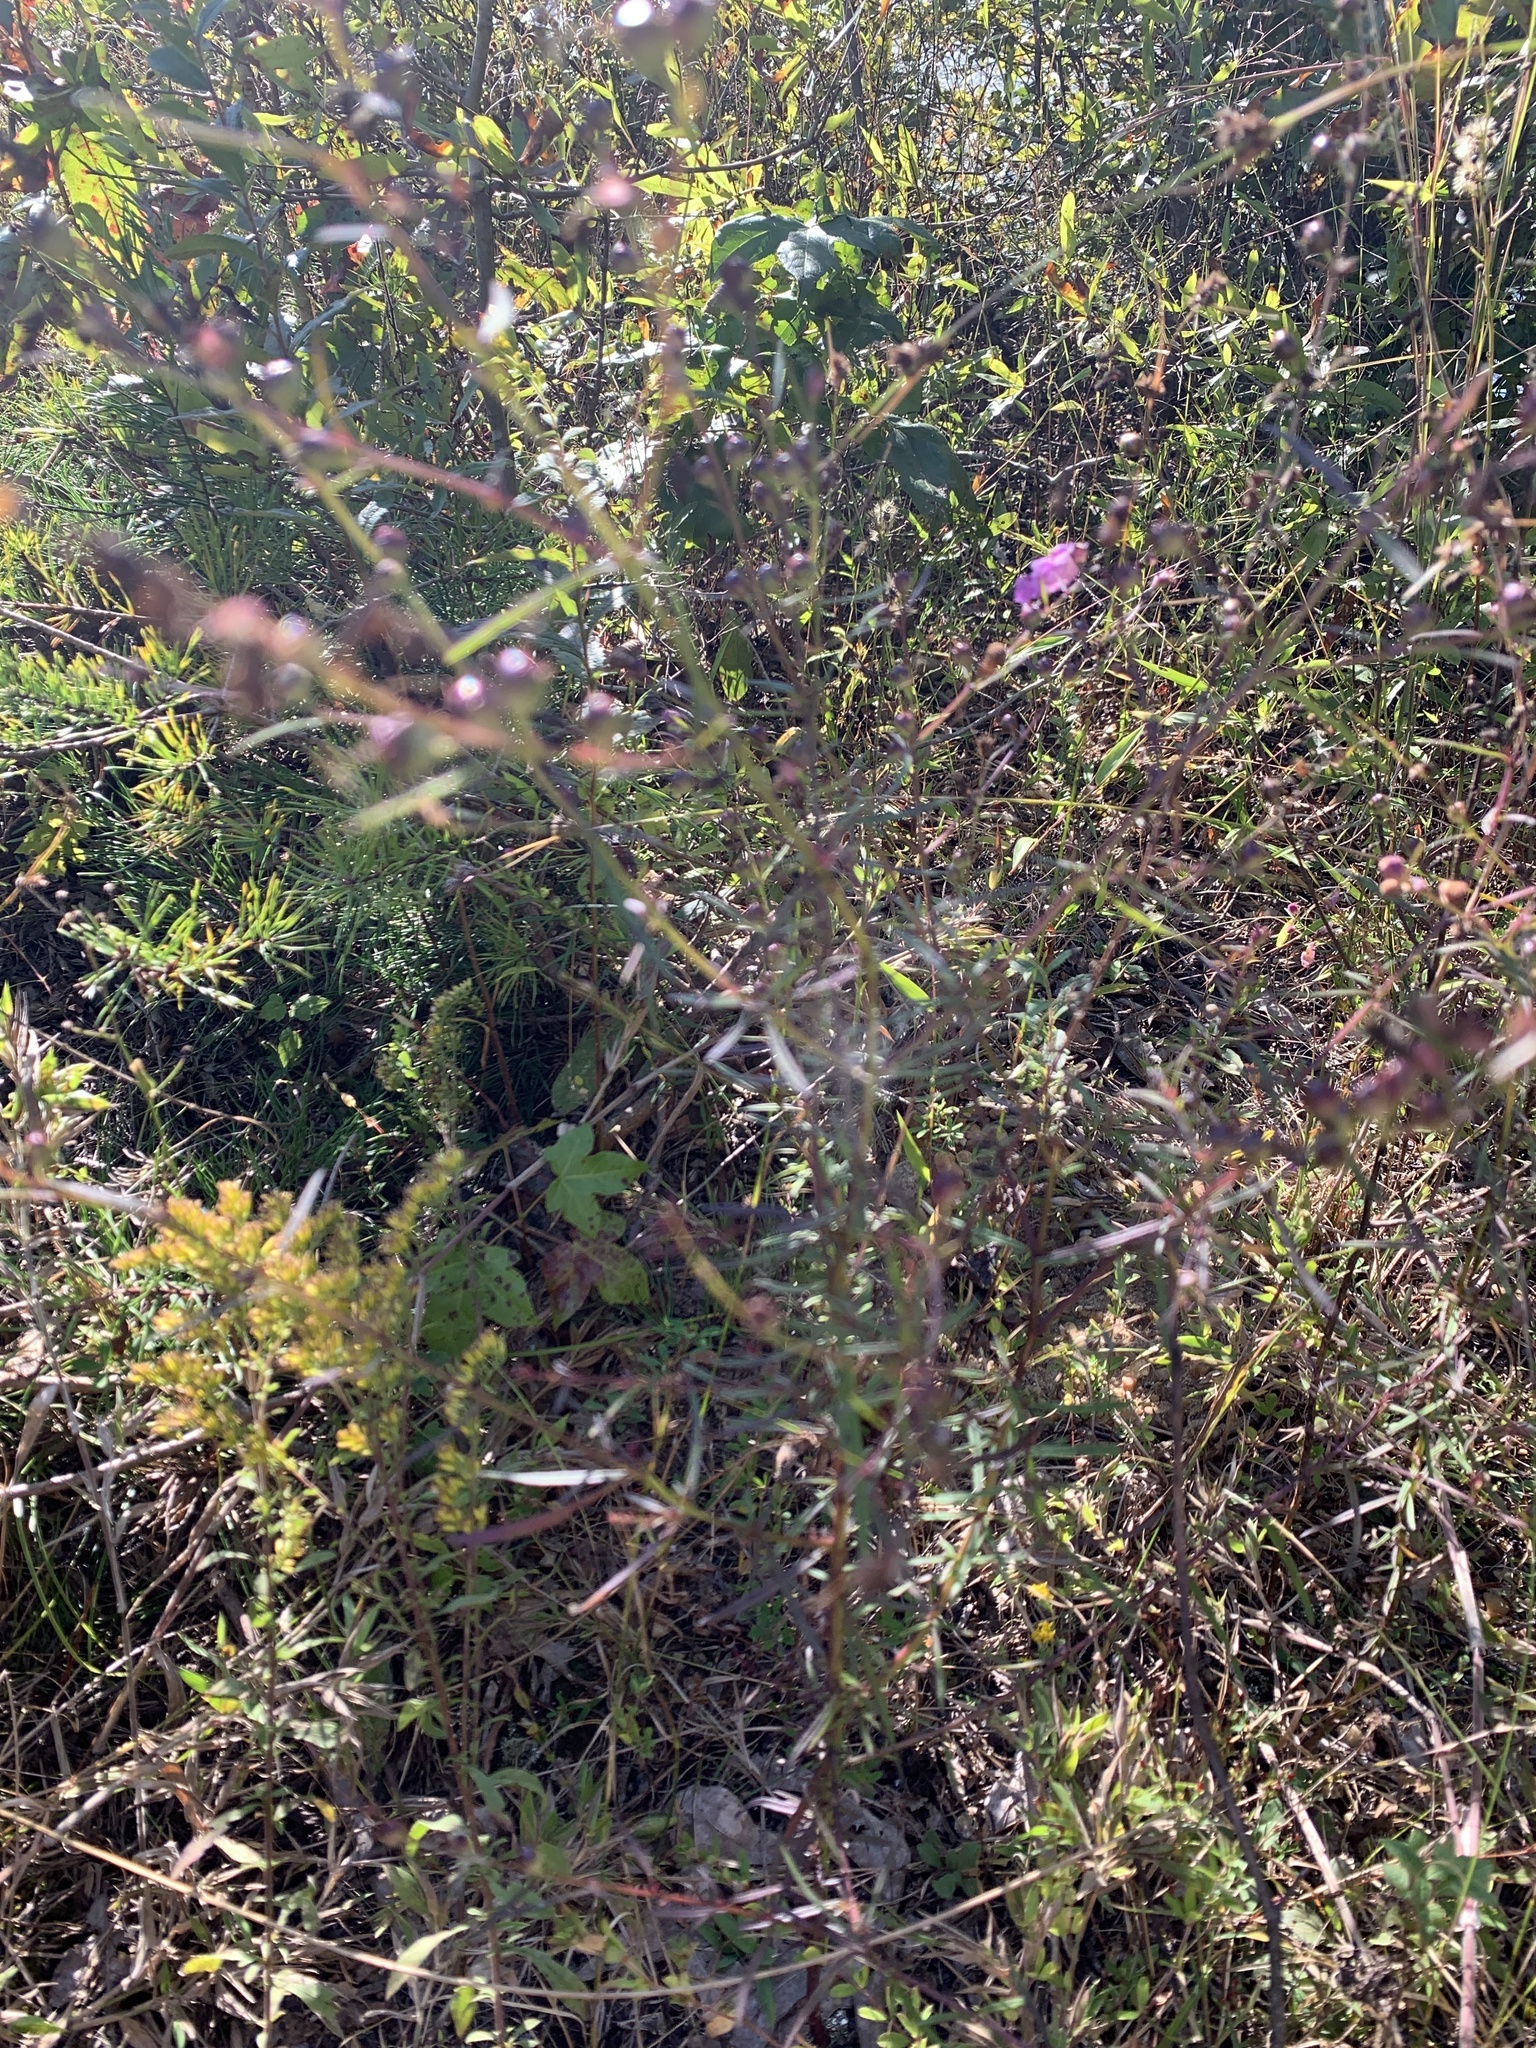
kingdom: Plantae
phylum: Tracheophyta
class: Magnoliopsida
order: Lamiales
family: Orobanchaceae
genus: Agalinis
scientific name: Agalinis purpurea
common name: Purple false foxglove
